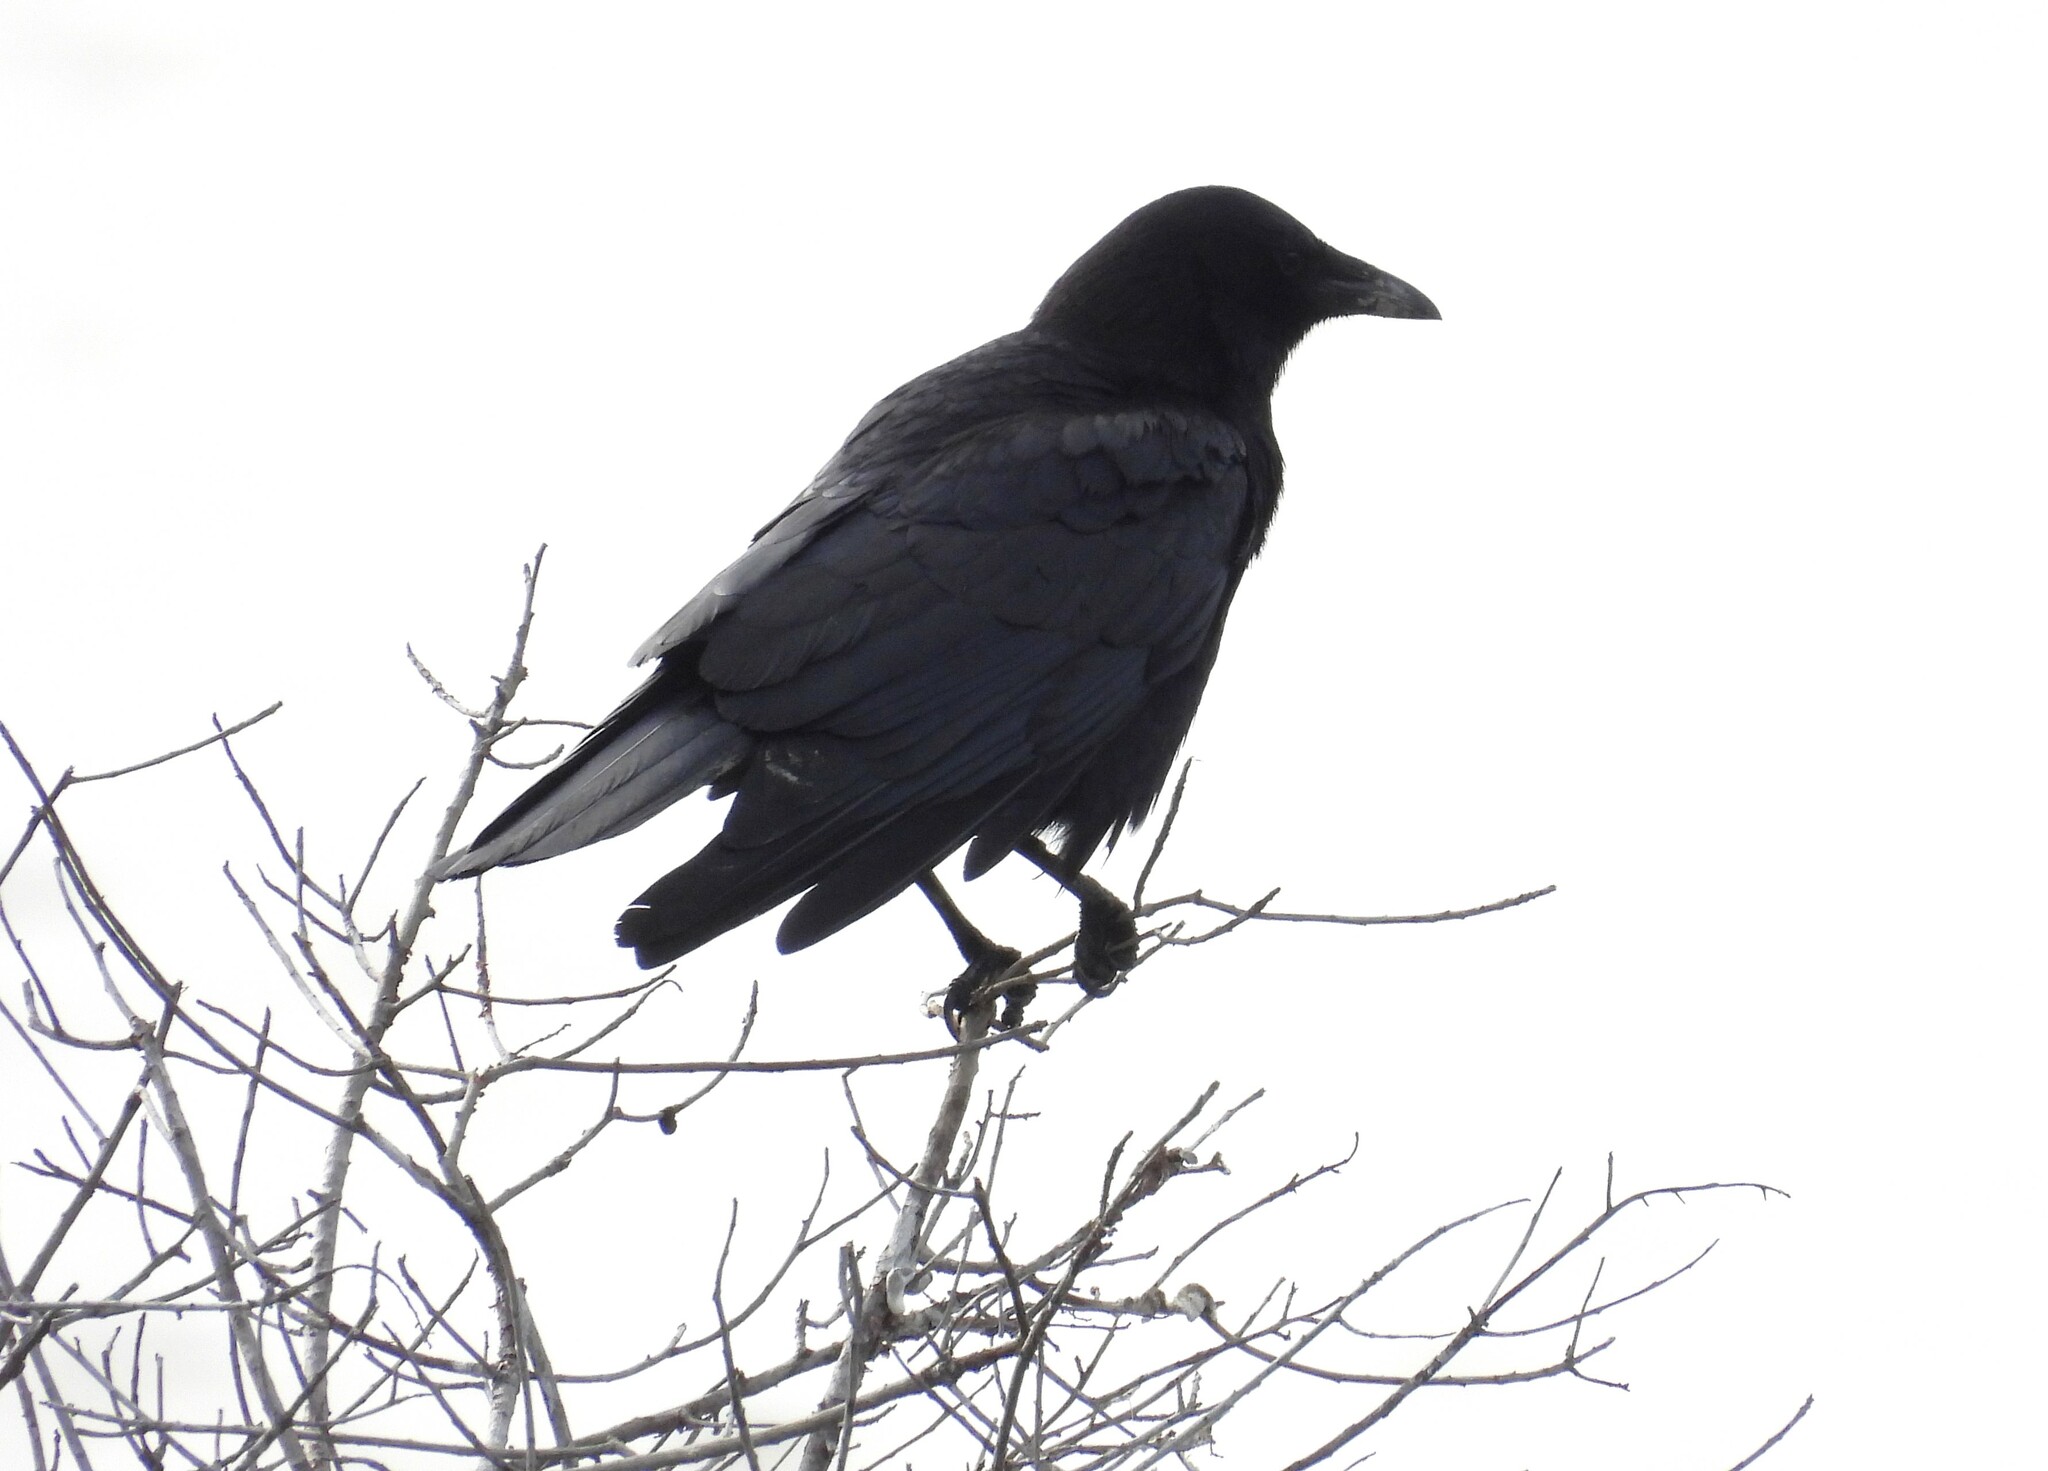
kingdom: Animalia
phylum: Chordata
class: Aves
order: Passeriformes
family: Corvidae
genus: Corvus
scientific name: Corvus brachyrhynchos
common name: American crow
